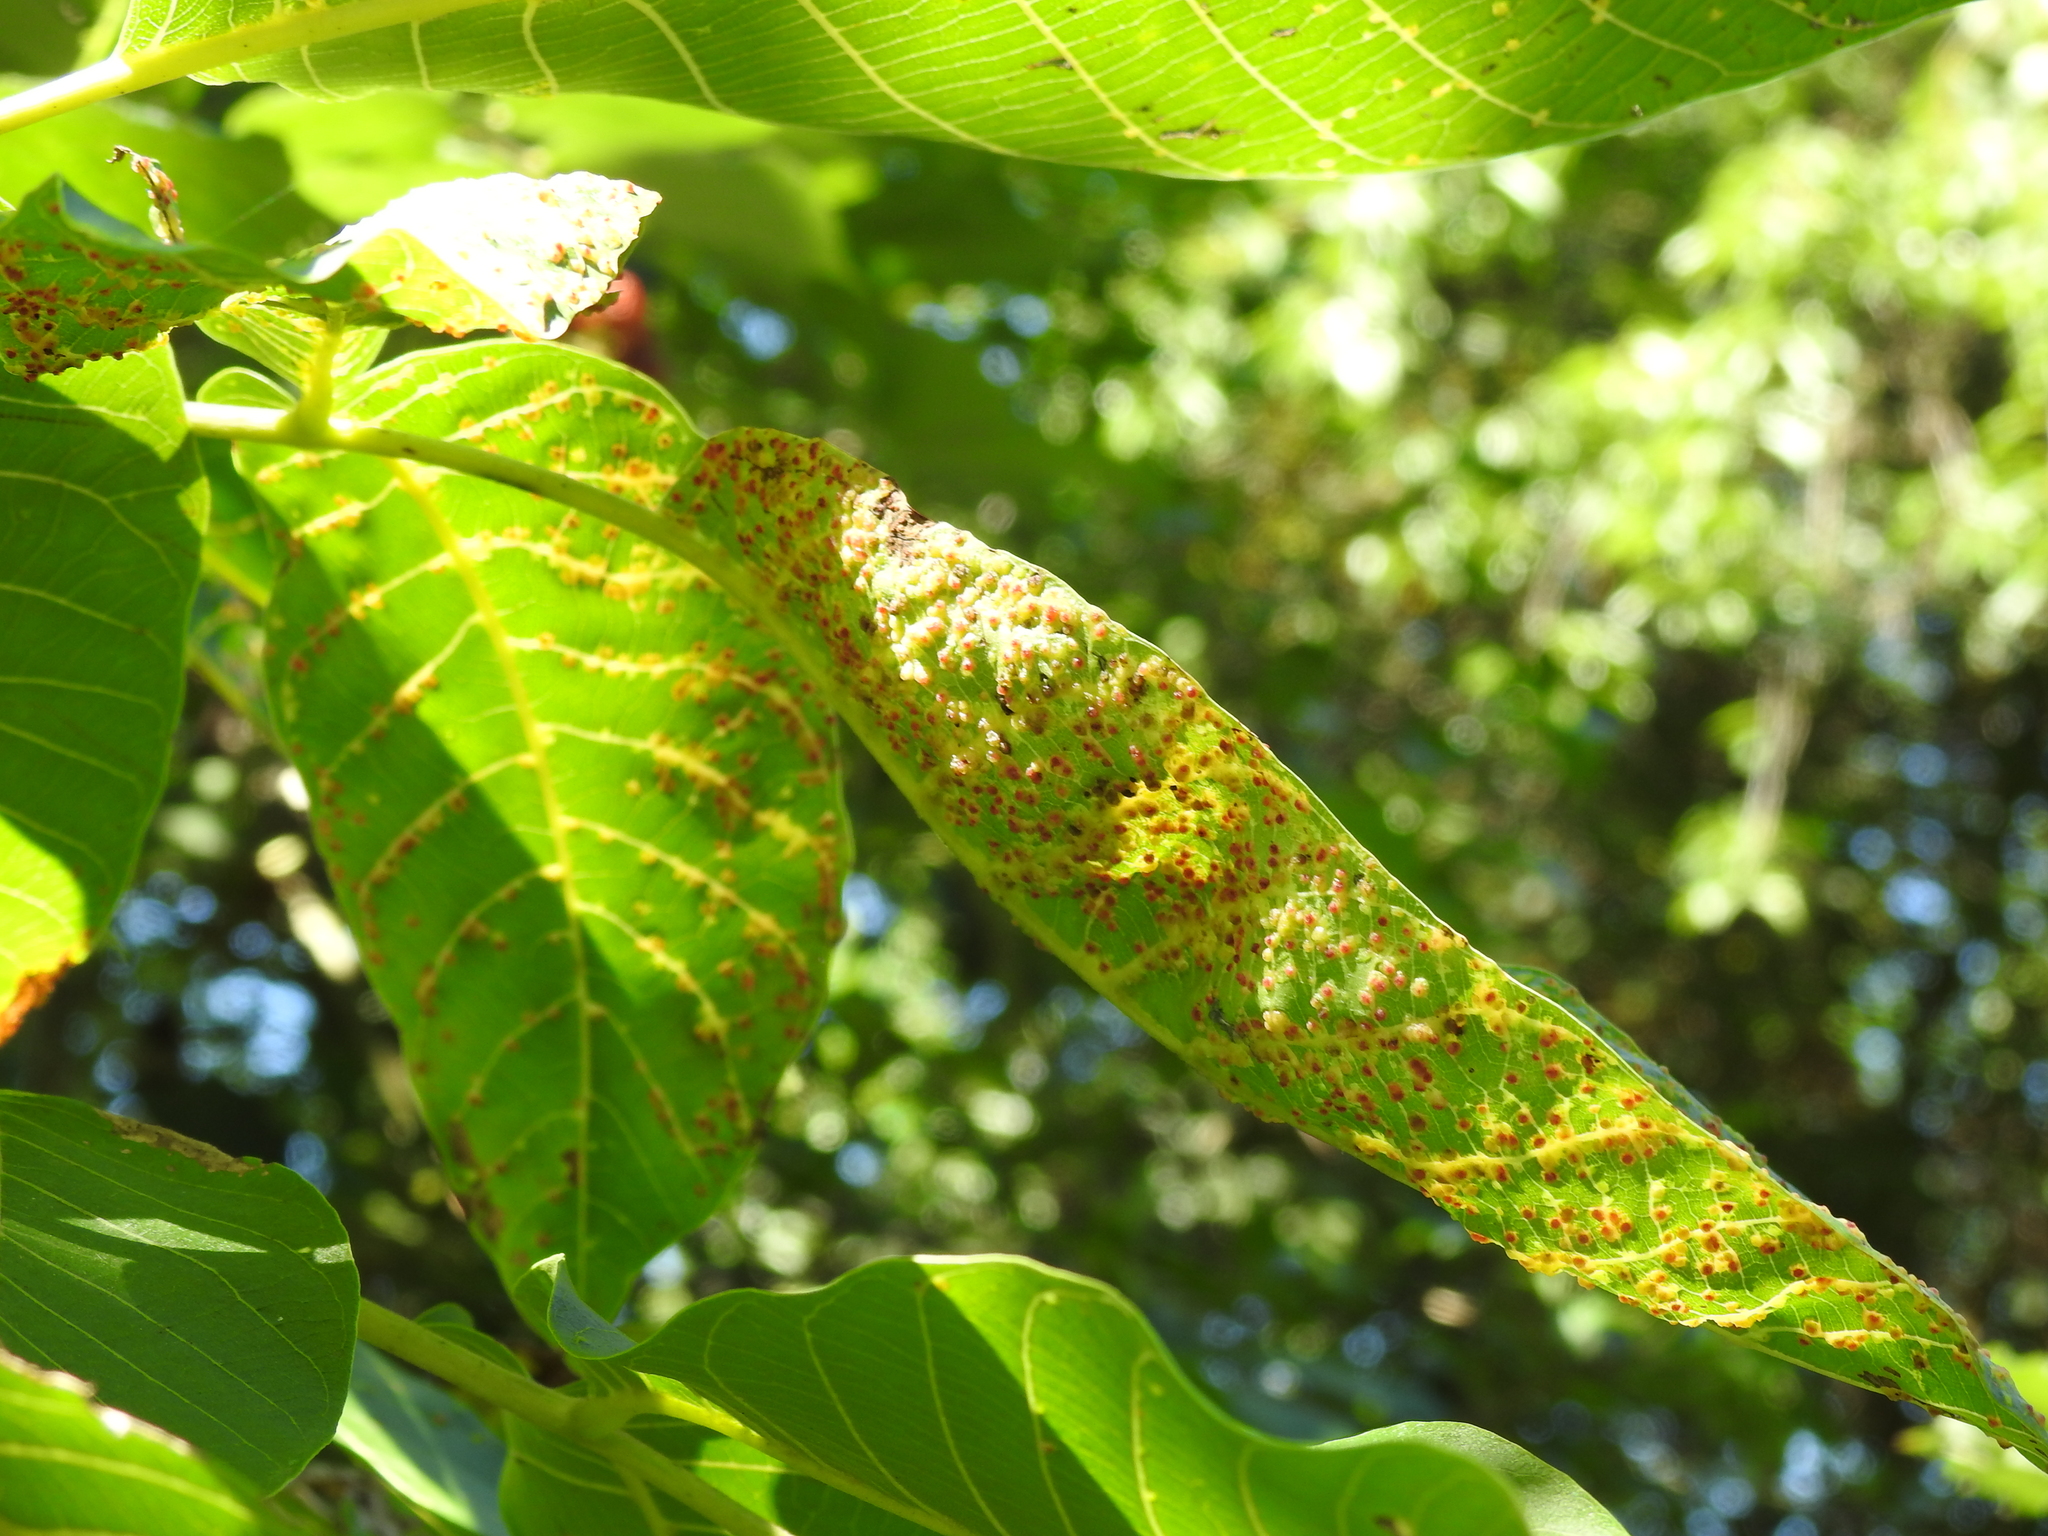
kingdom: Animalia
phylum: Arthropoda
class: Arachnida
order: Trombidiformes
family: Eriophyidae
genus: Aceria
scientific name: Aceria tristriata
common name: Persian walnut leaf blister mite
